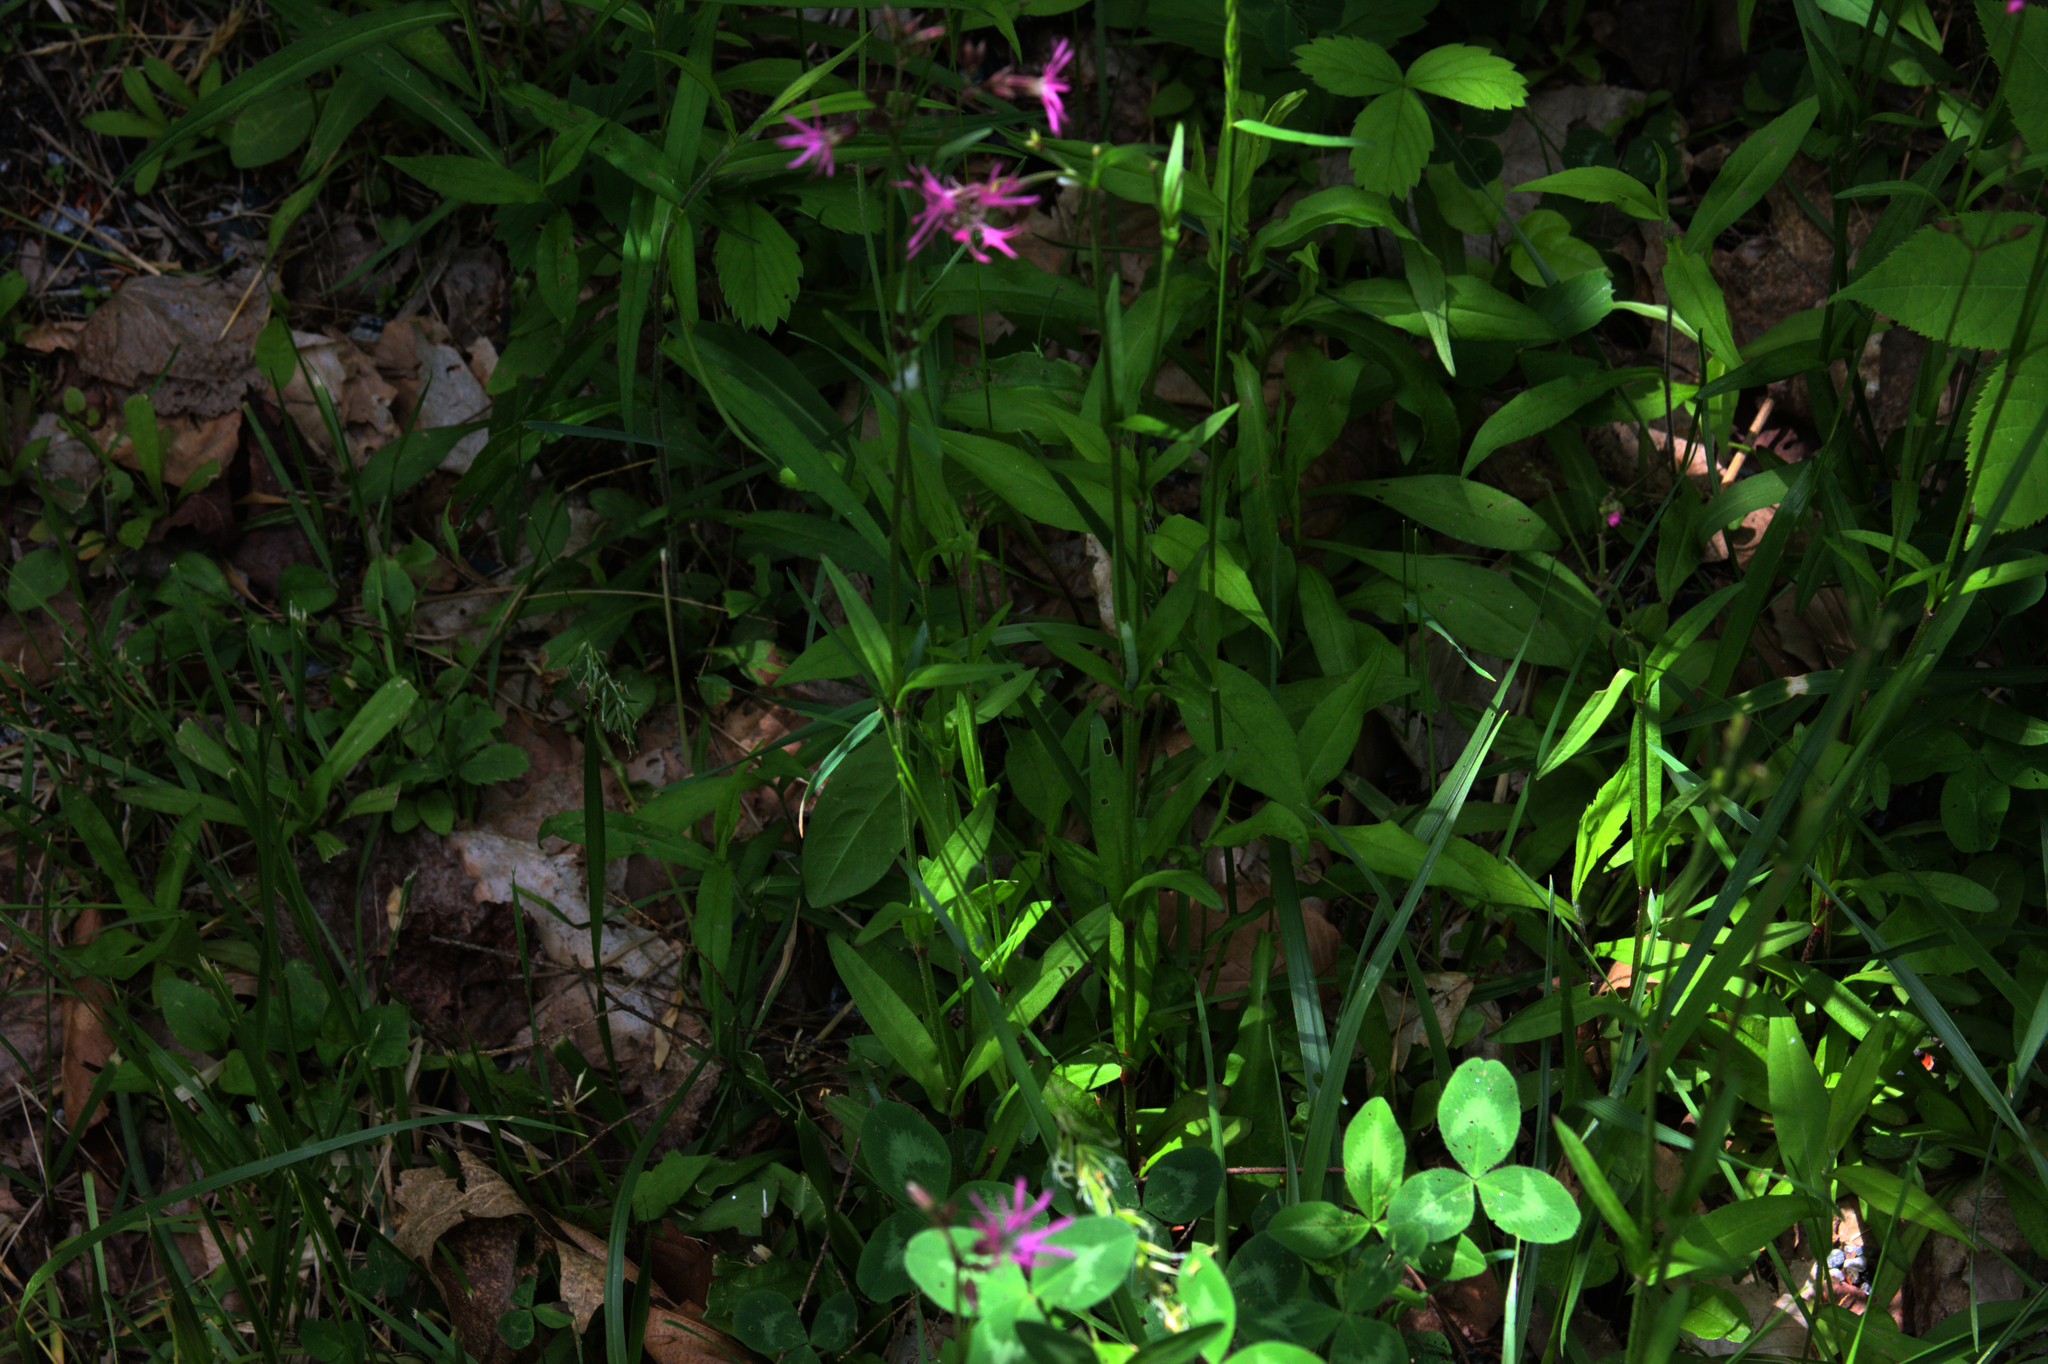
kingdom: Plantae
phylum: Tracheophyta
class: Magnoliopsida
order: Caryophyllales
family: Caryophyllaceae
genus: Silene
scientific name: Silene flos-cuculi
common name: Ragged-robin
